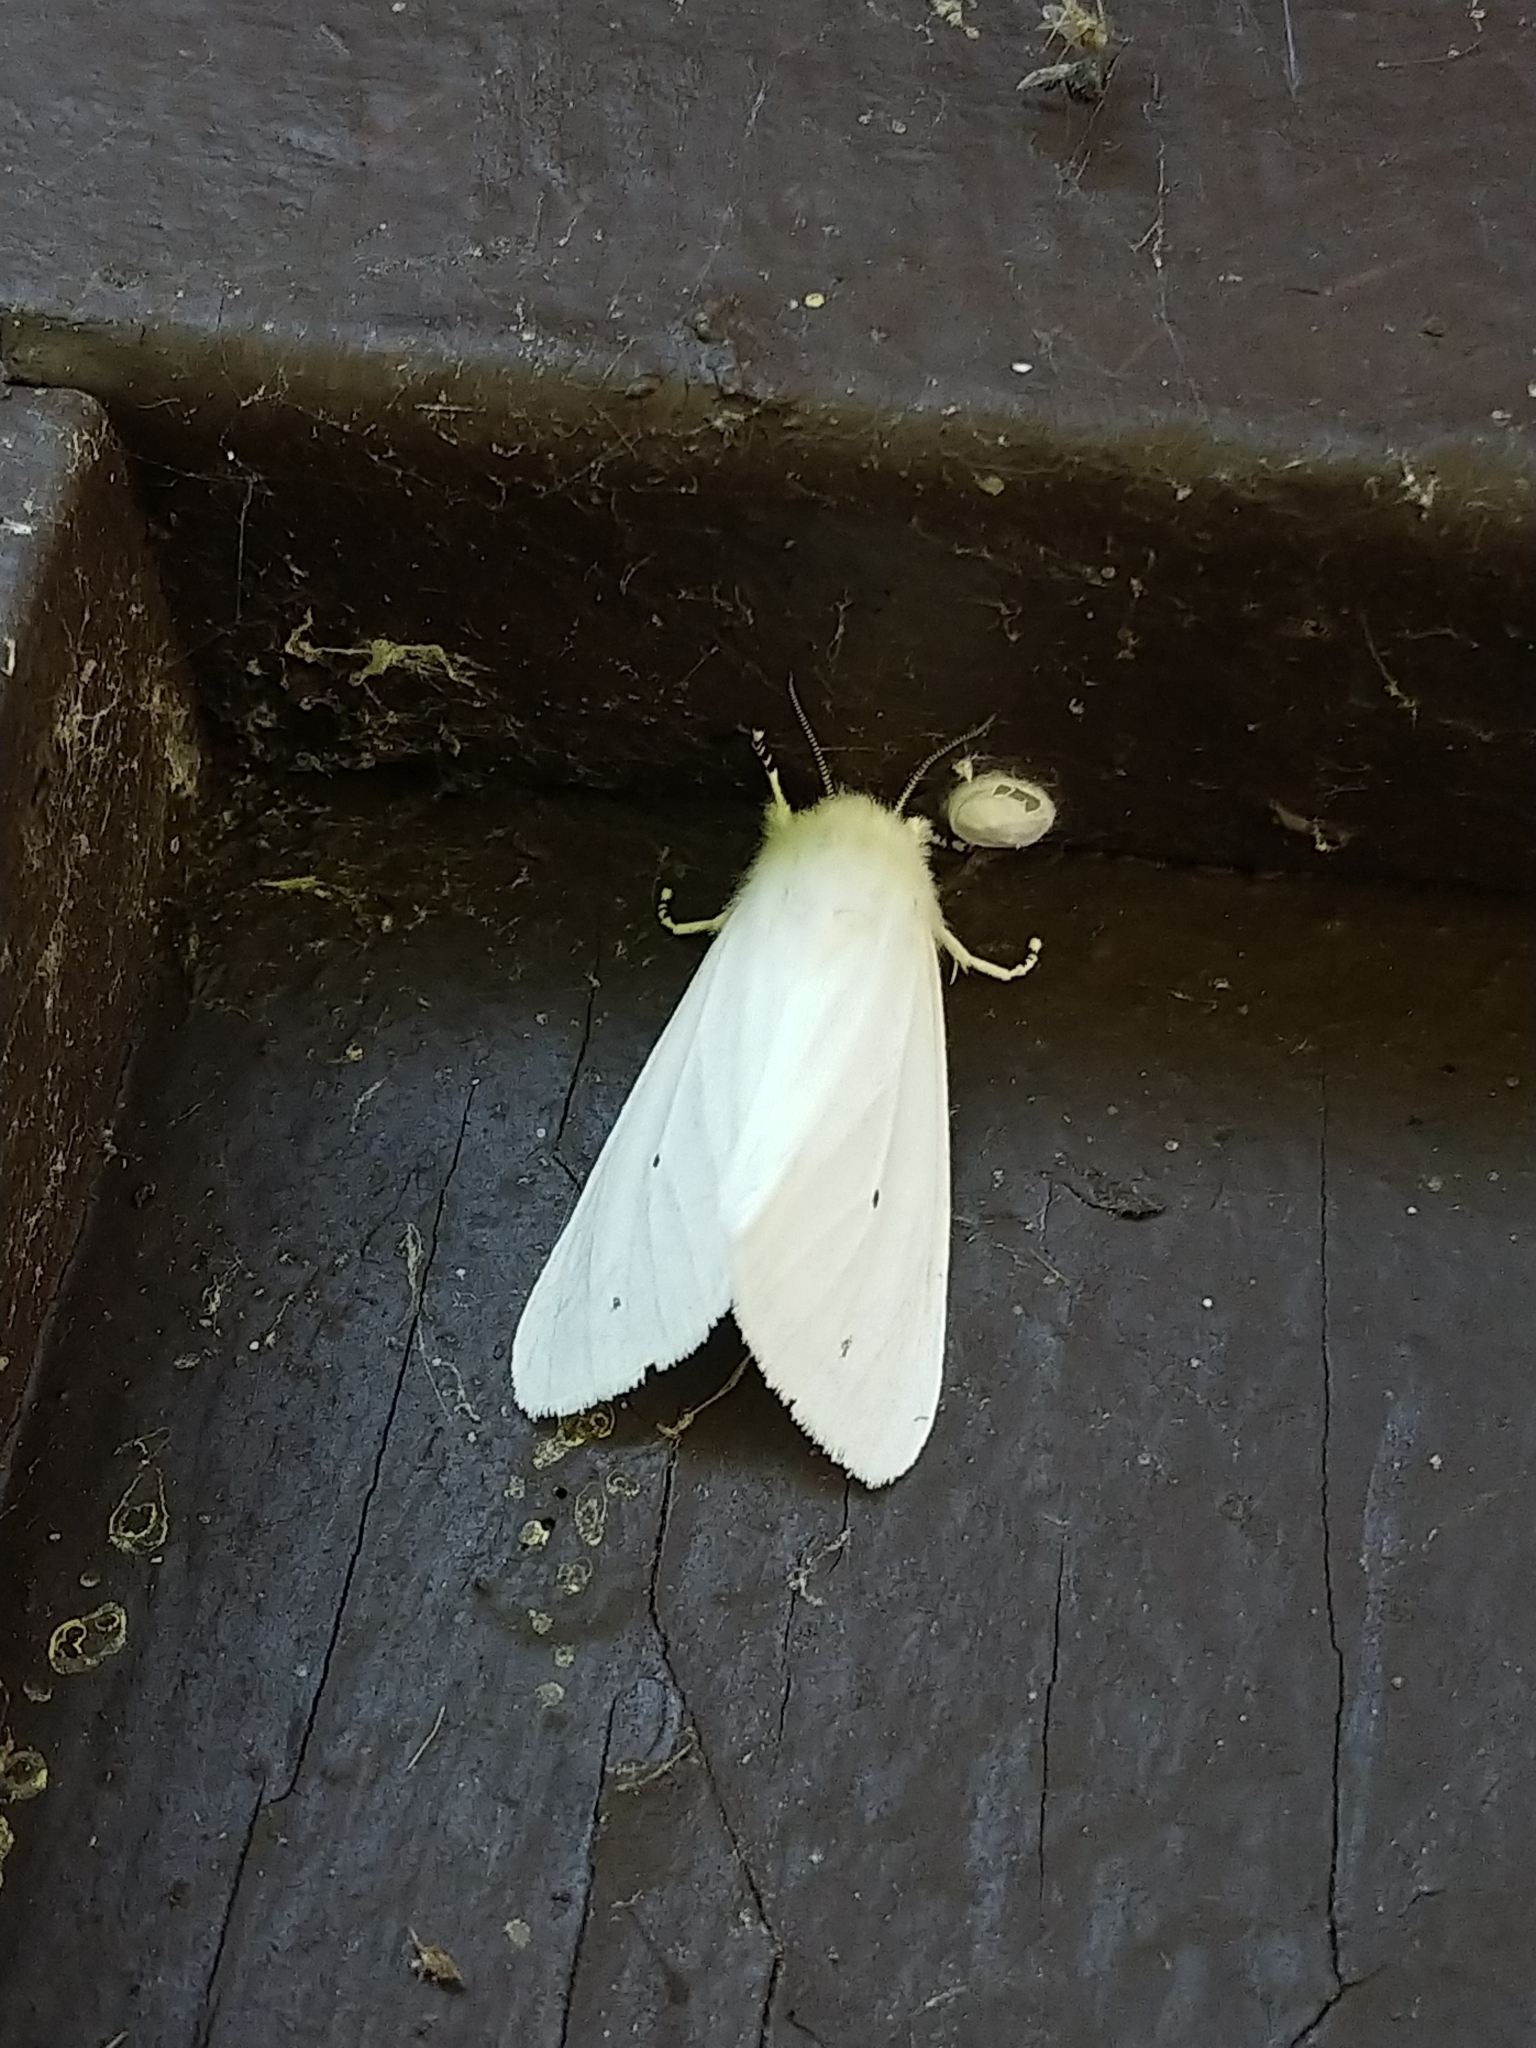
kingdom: Animalia
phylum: Arthropoda
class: Insecta
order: Lepidoptera
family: Erebidae
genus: Spilosoma
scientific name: Spilosoma virginica
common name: Virginia tiger moth
